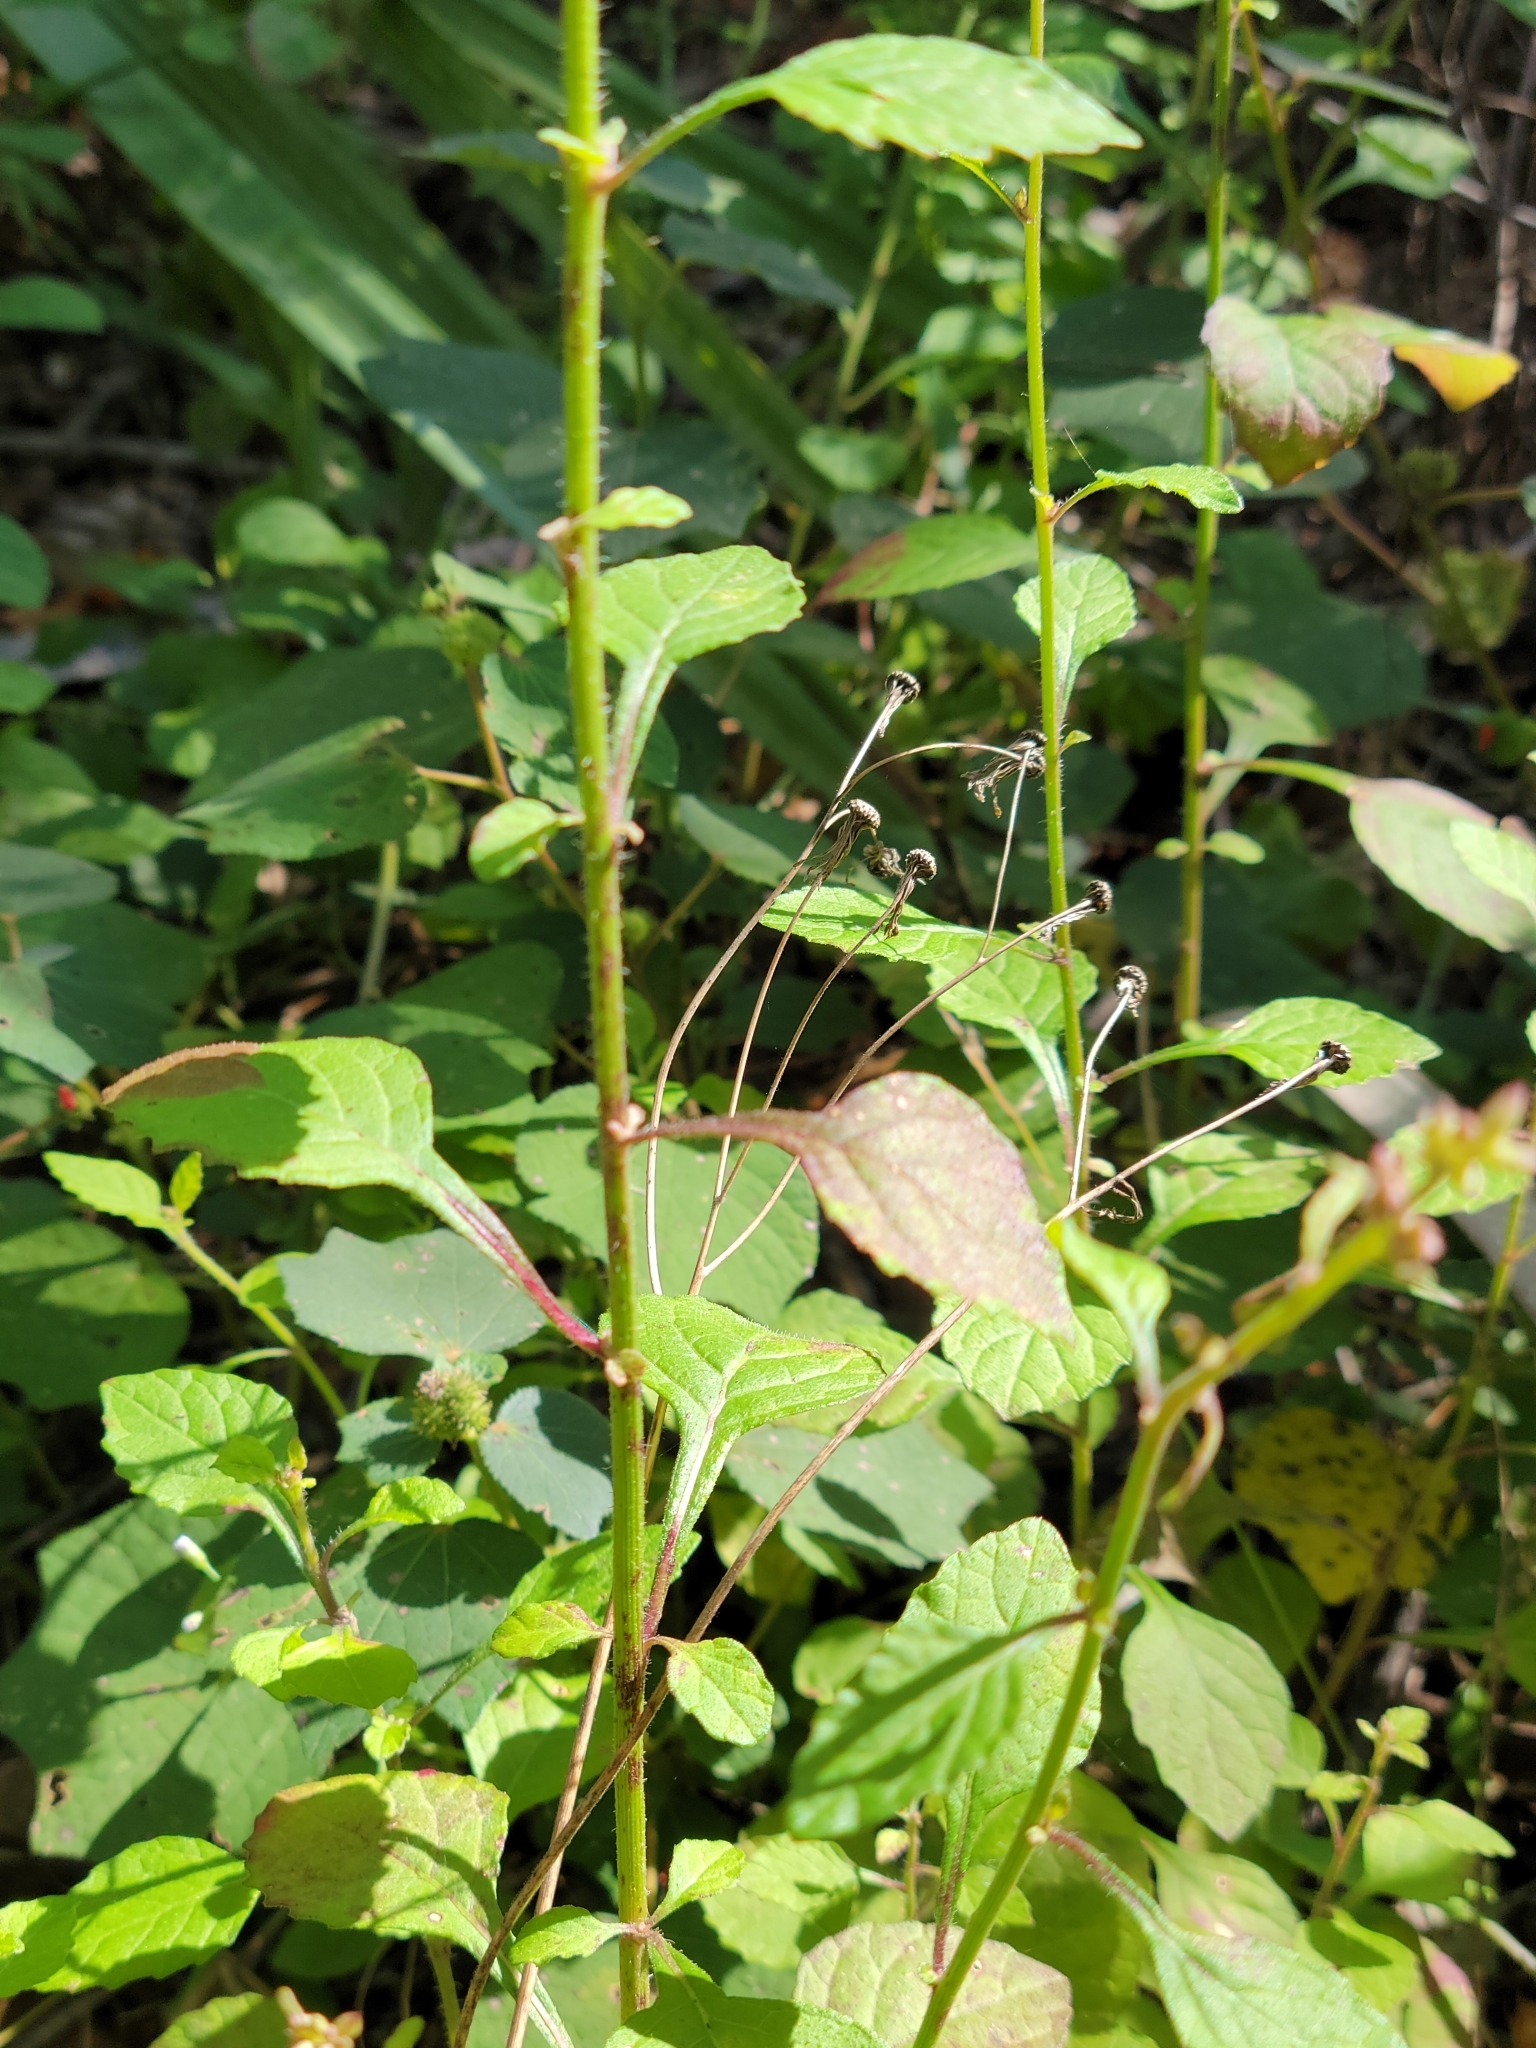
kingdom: Plantae
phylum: Tracheophyta
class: Magnoliopsida
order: Asterales
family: Asteraceae
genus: Cyanthillium
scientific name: Cyanthillium cinereum
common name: Little ironweed
